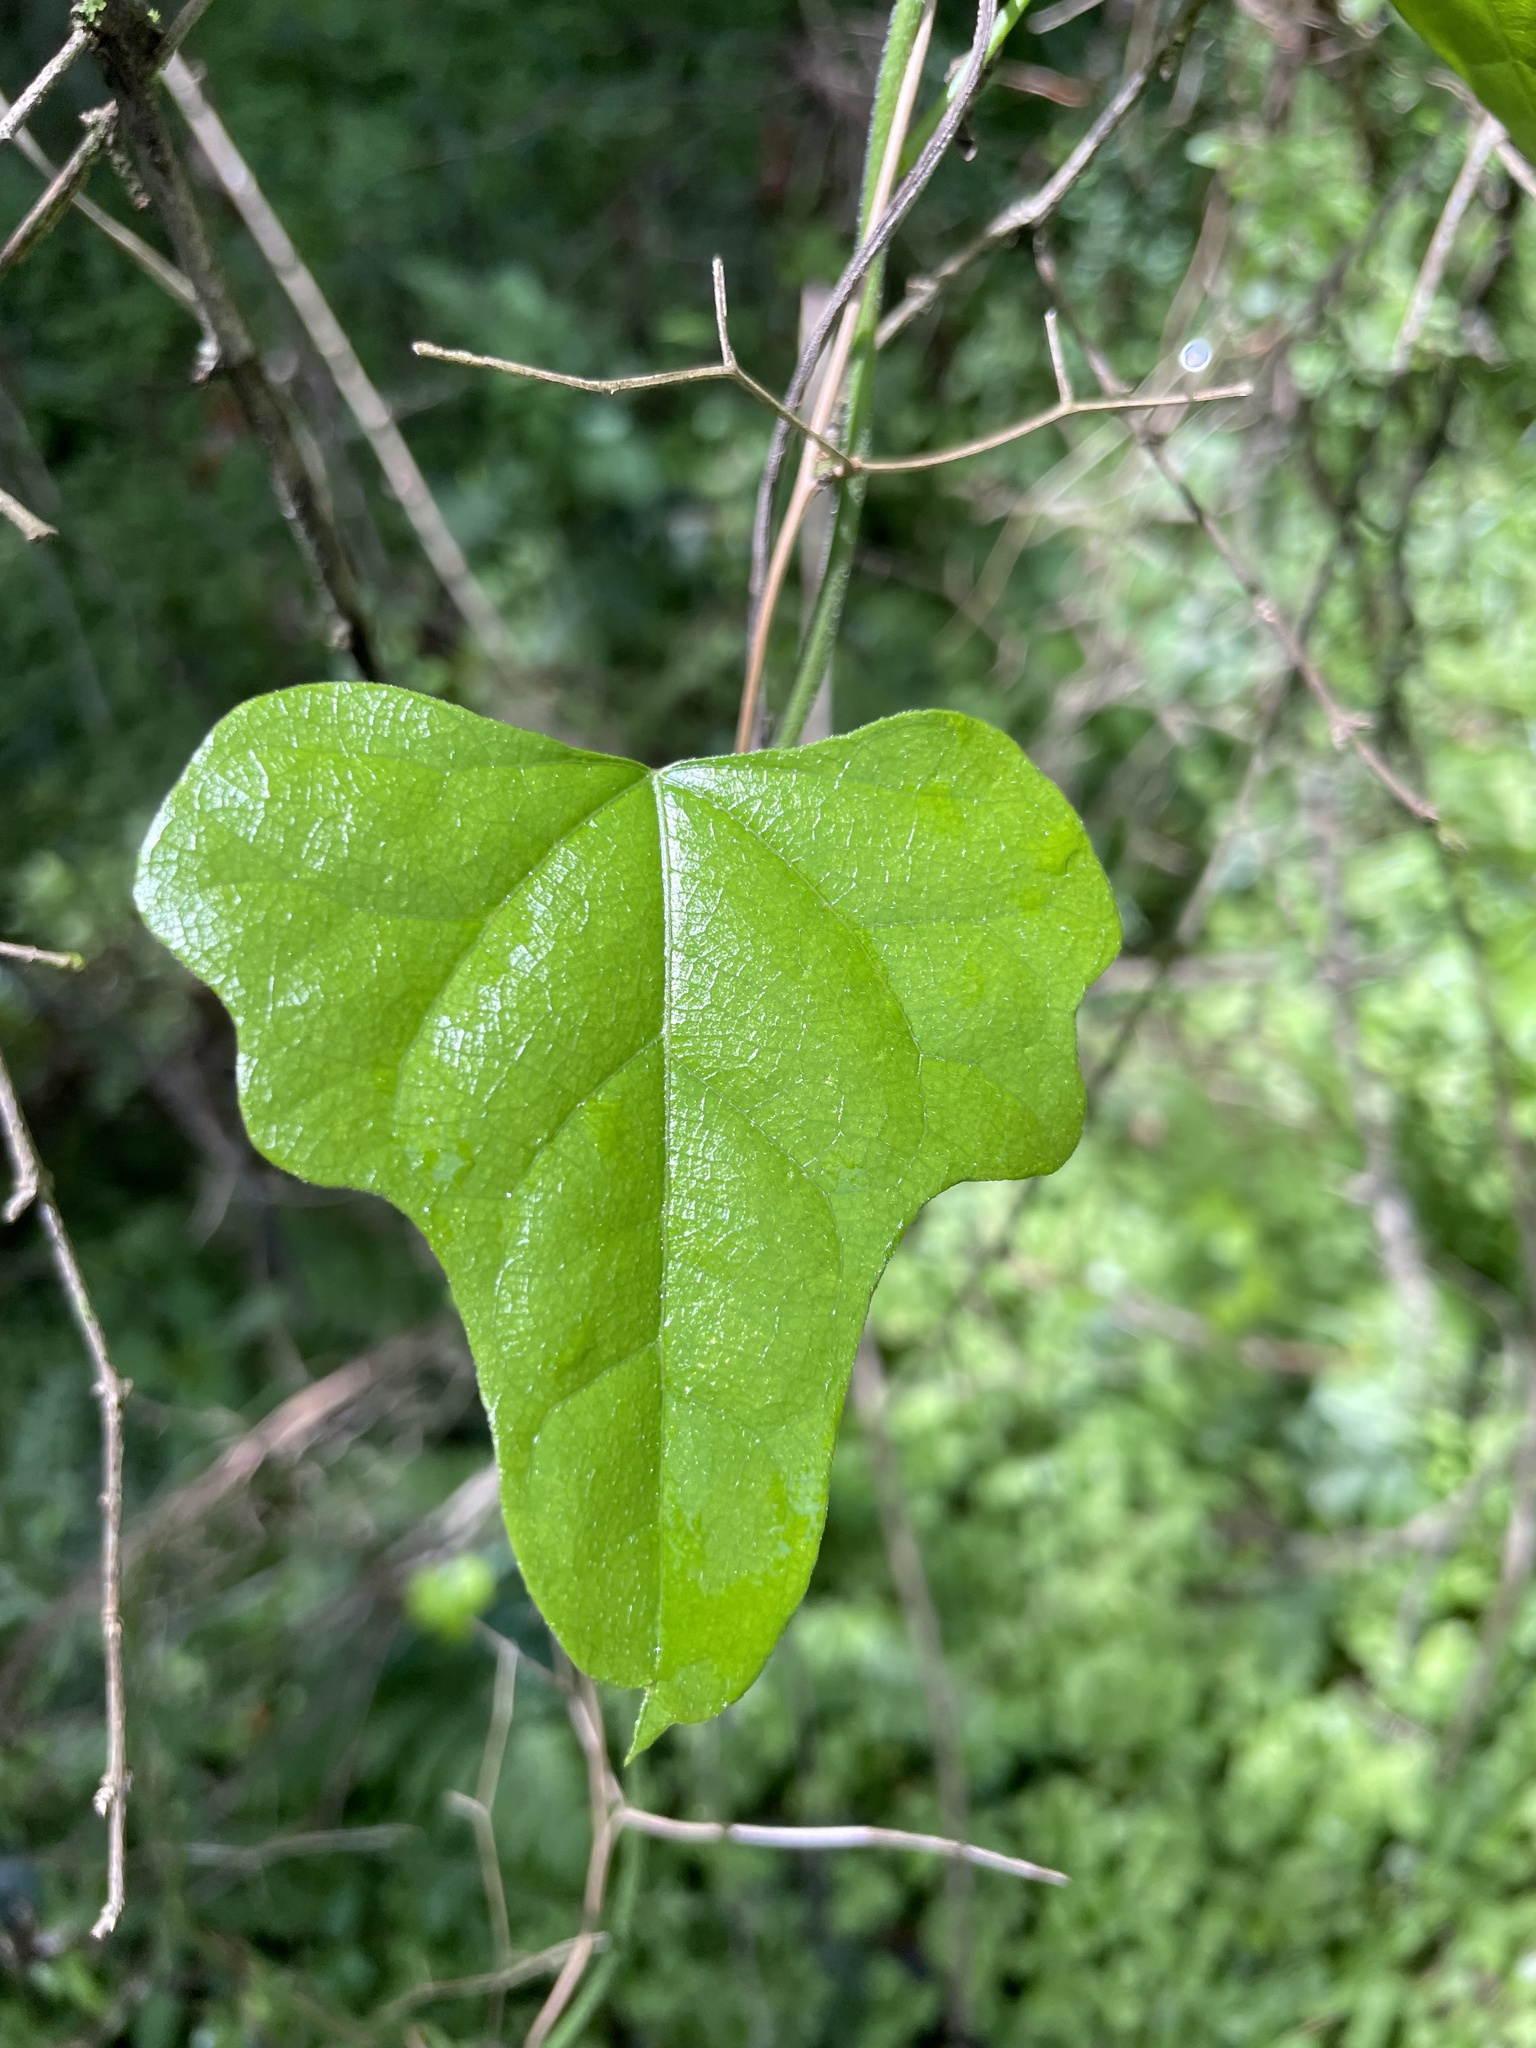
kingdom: Plantae
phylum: Tracheophyta
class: Magnoliopsida
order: Ranunculales
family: Menispermaceae
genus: Cocculus
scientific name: Cocculus carolinus
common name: Carolina moonseed
